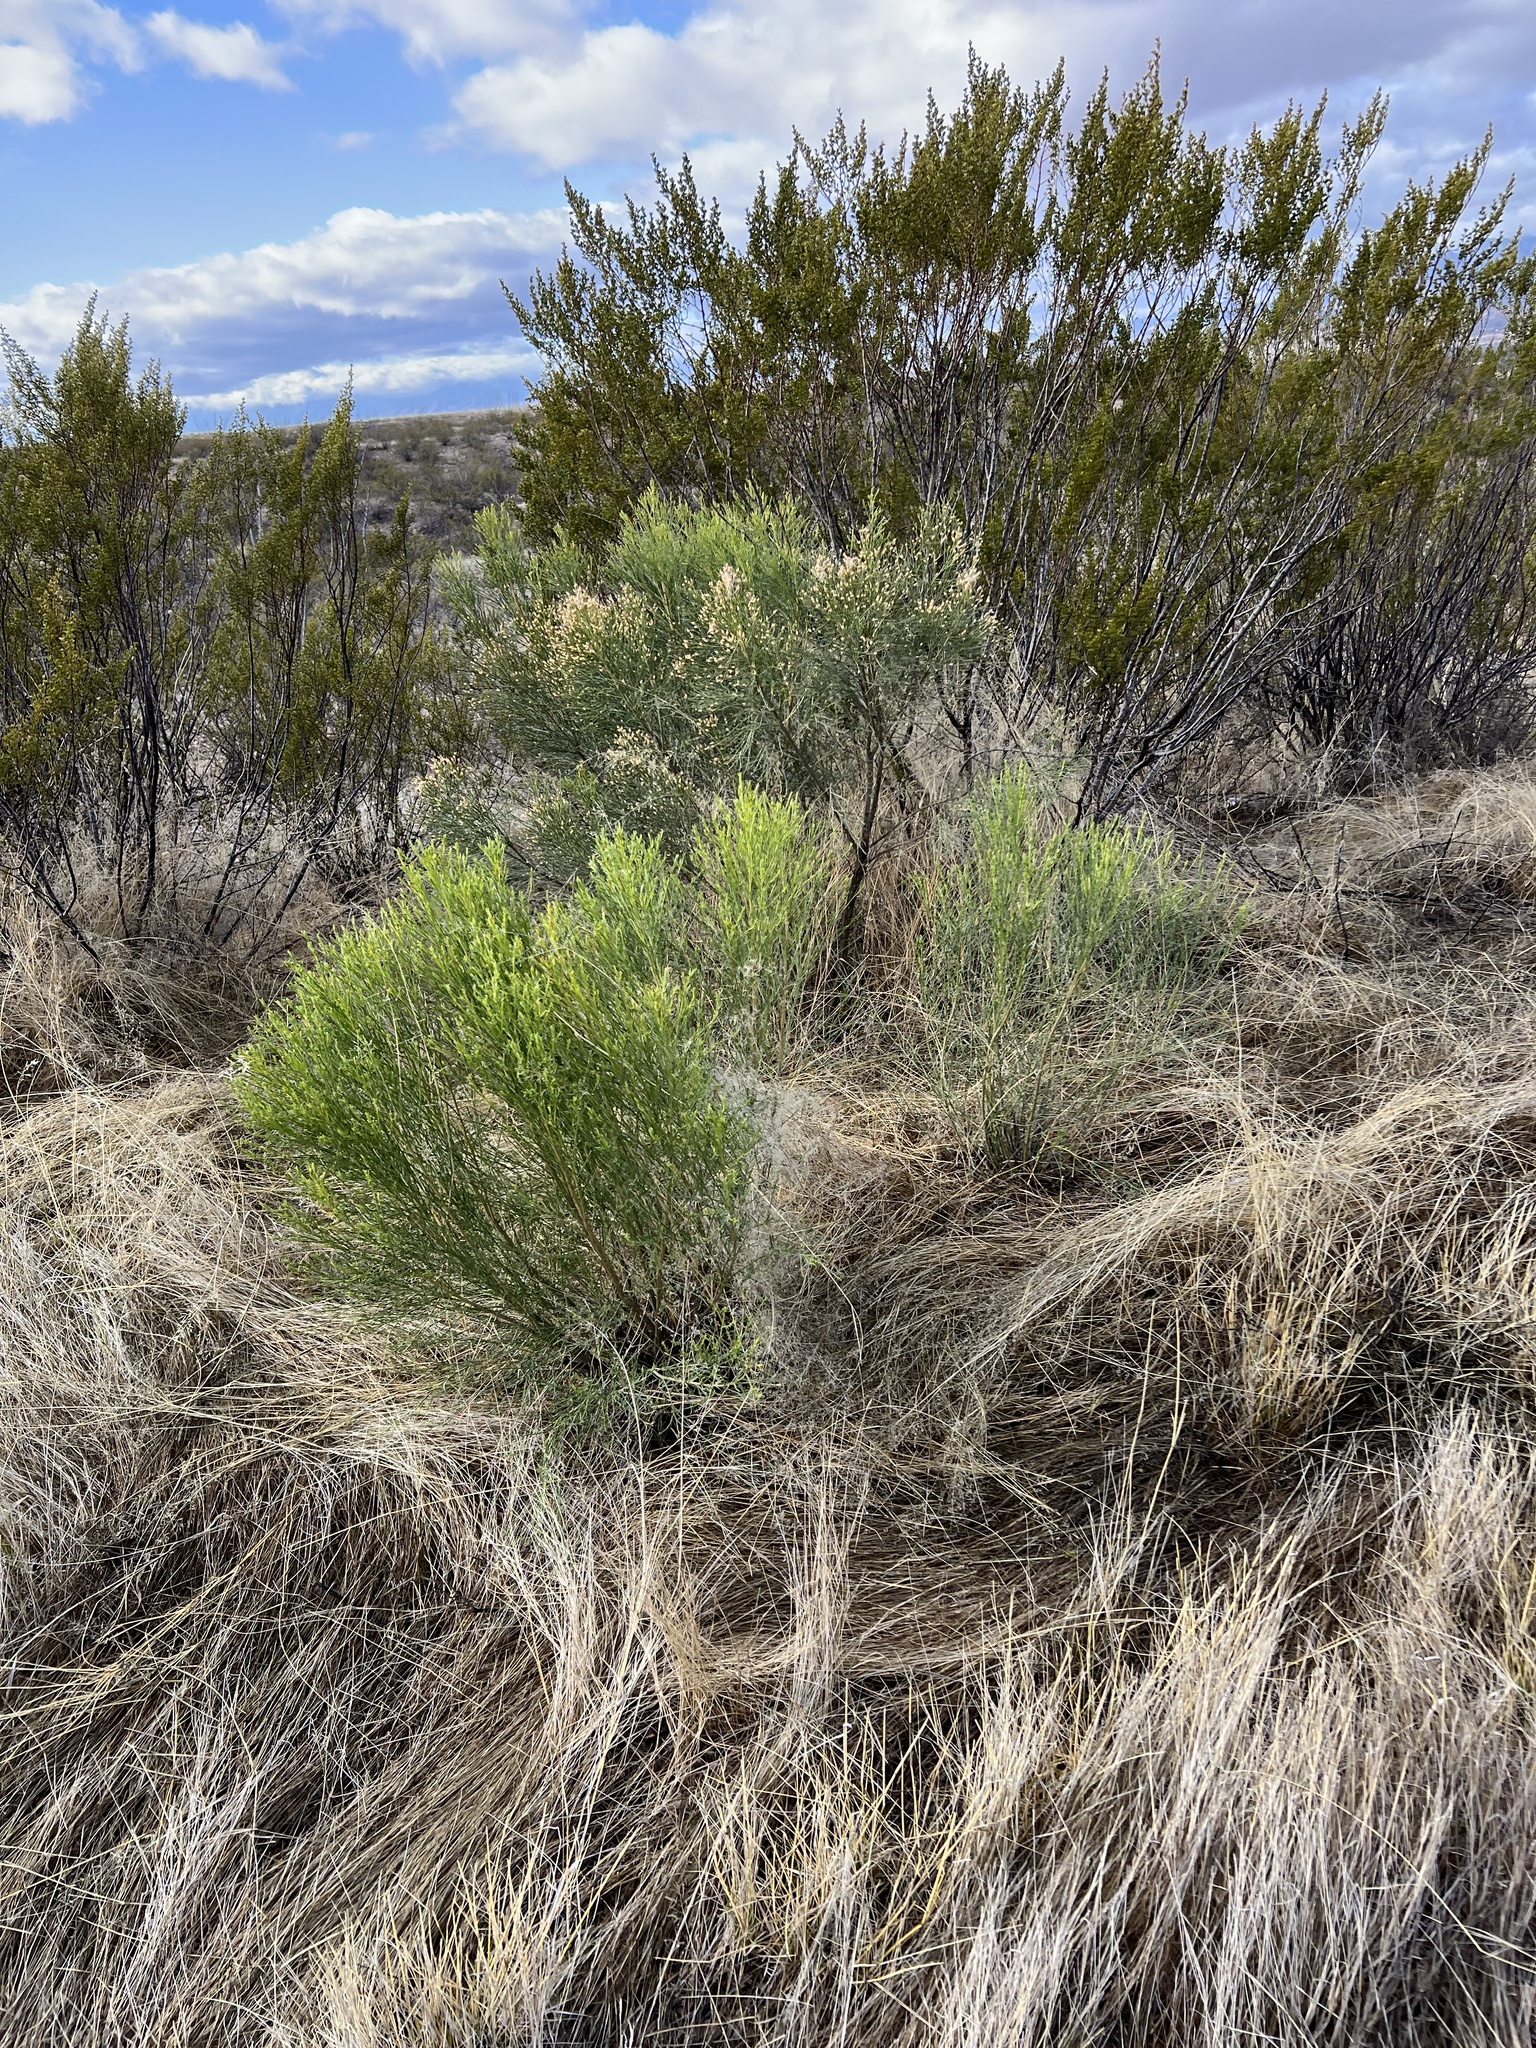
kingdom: Plantae
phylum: Tracheophyta
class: Magnoliopsida
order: Asterales
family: Asteraceae
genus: Baccharis
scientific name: Baccharis sarothroides
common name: Desert-broom
